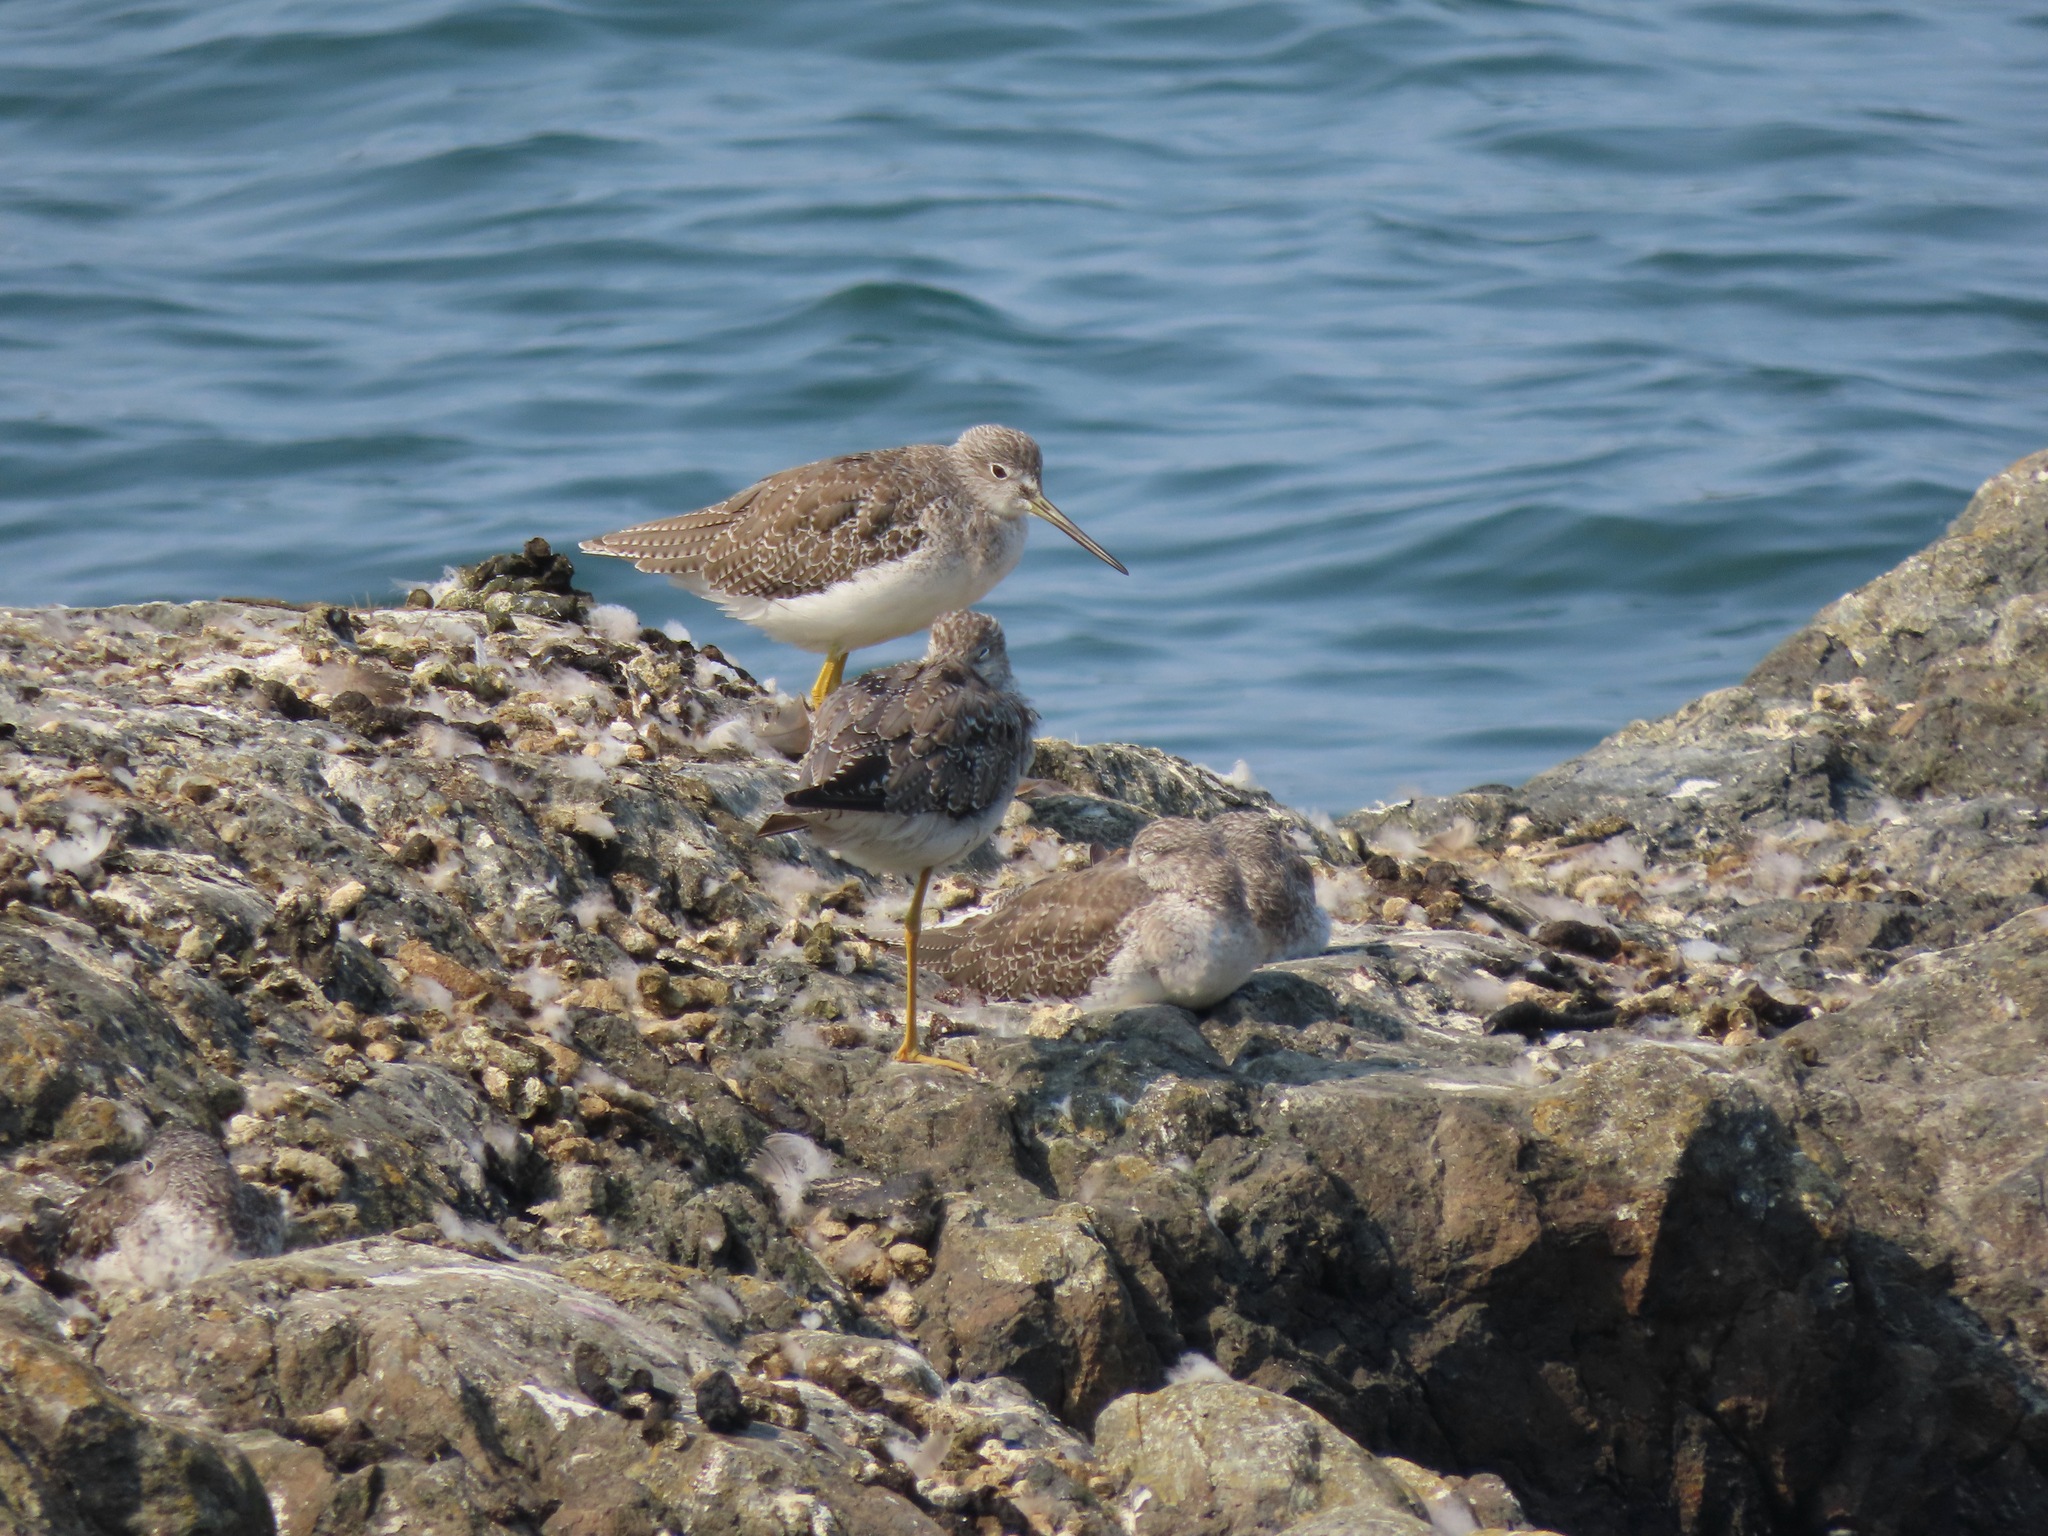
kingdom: Animalia
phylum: Chordata
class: Aves
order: Charadriiformes
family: Scolopacidae
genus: Tringa
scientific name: Tringa melanoleuca
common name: Greater yellowlegs
